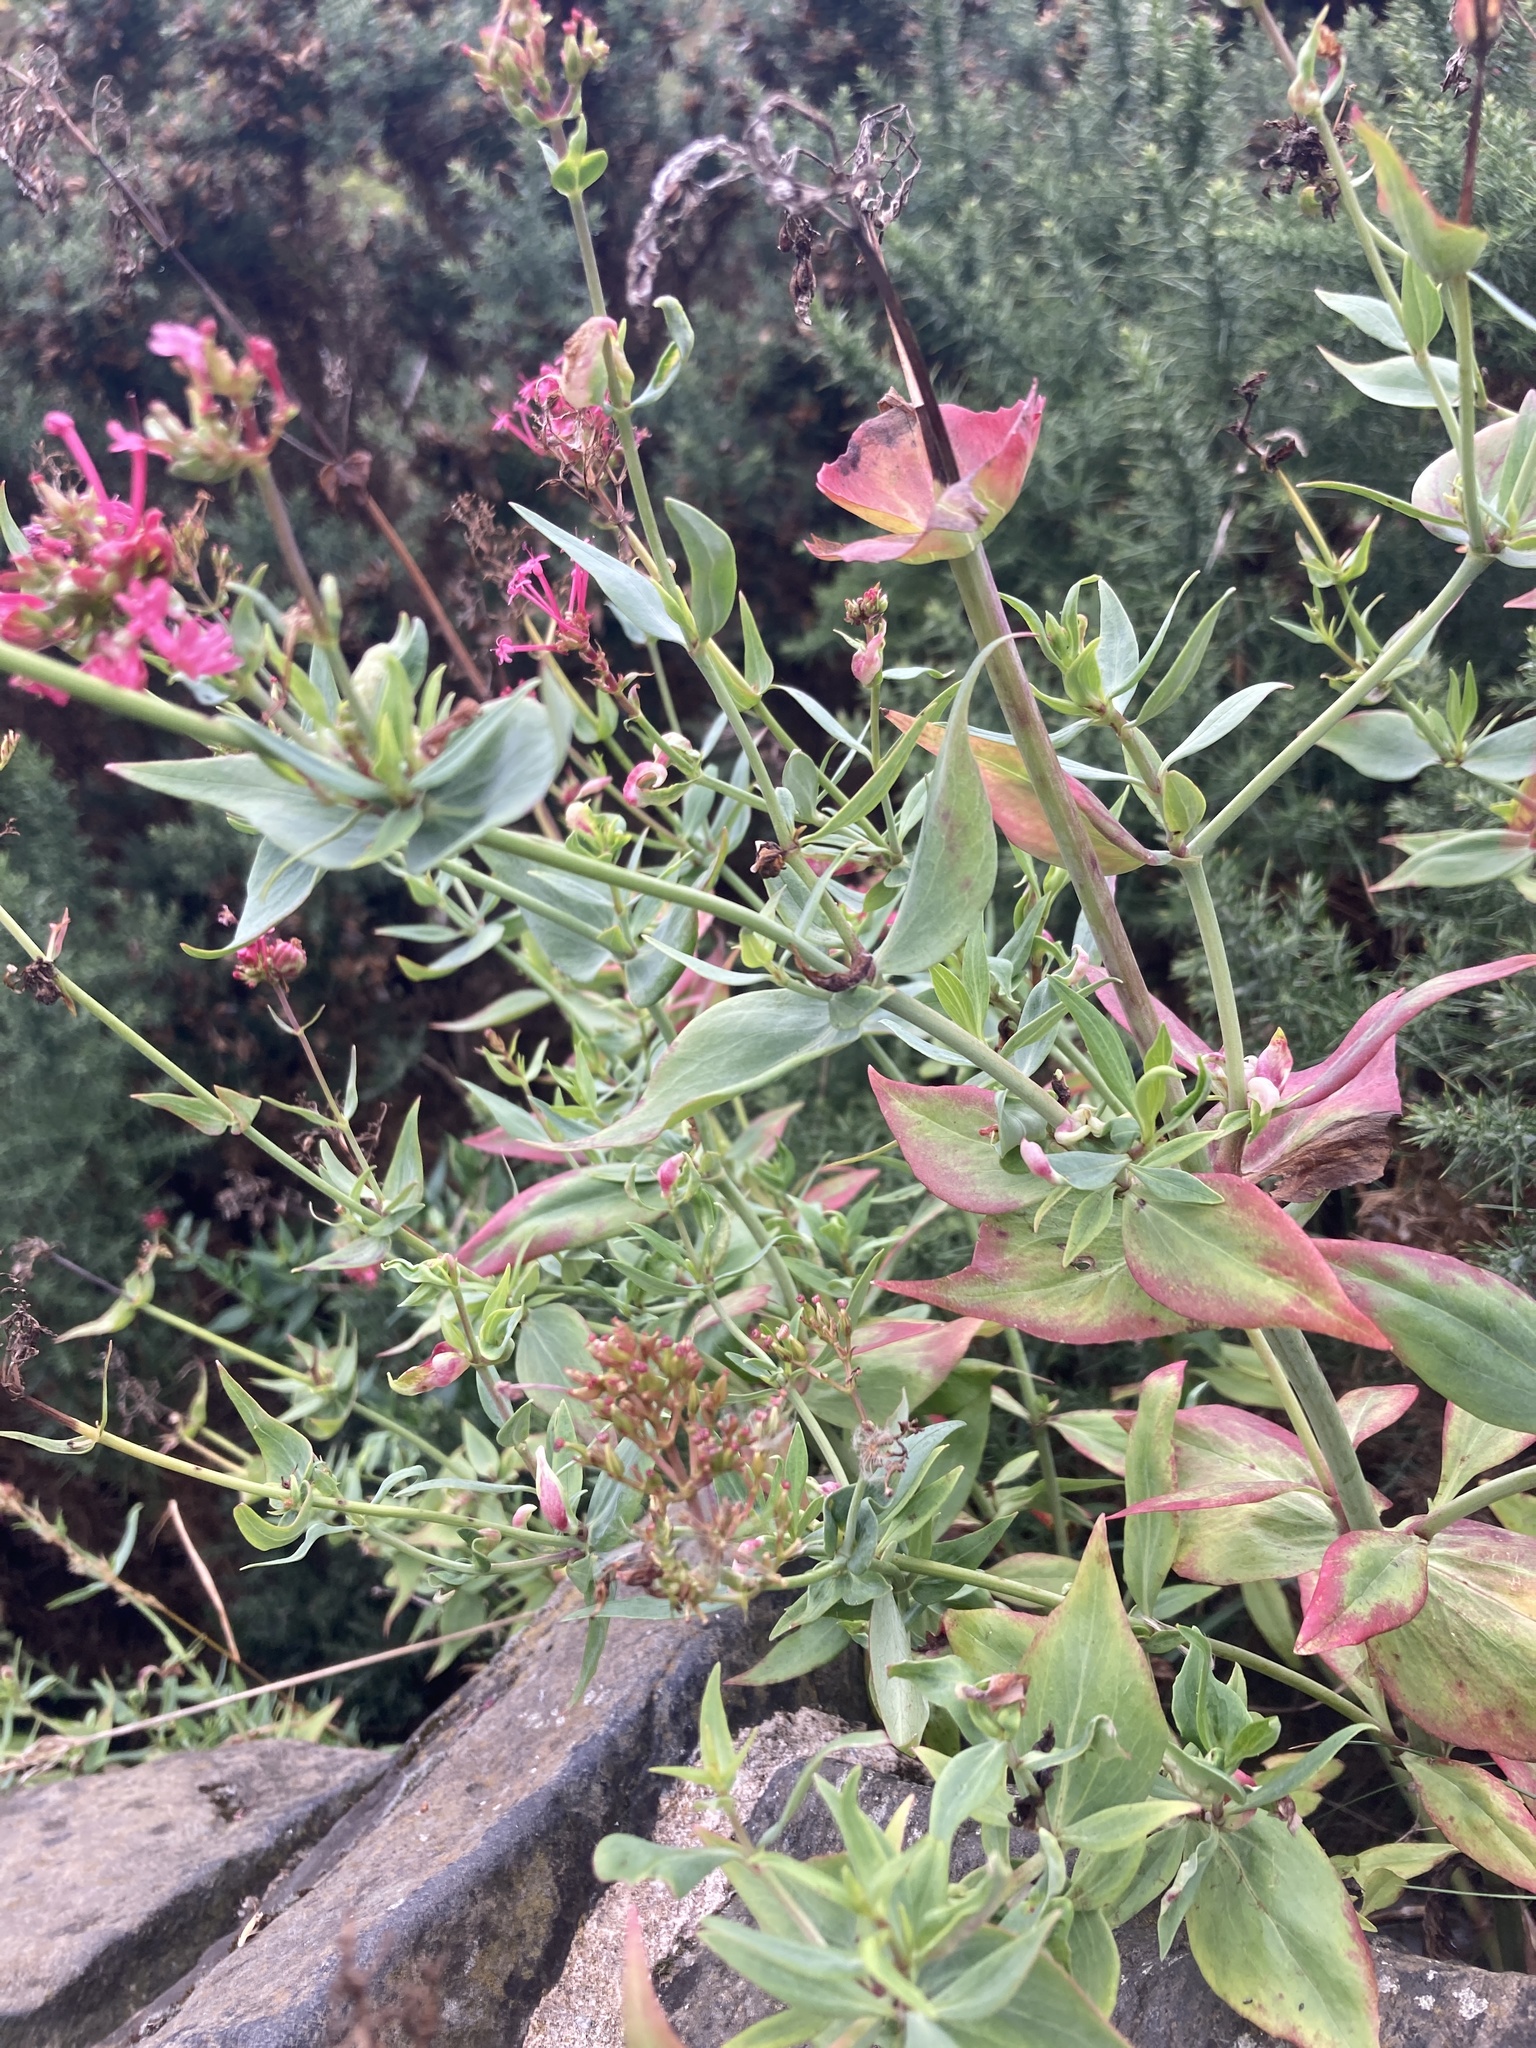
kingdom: Plantae
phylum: Tracheophyta
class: Magnoliopsida
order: Dipsacales
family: Caprifoliaceae
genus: Centranthus
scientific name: Centranthus ruber
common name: Red valerian
